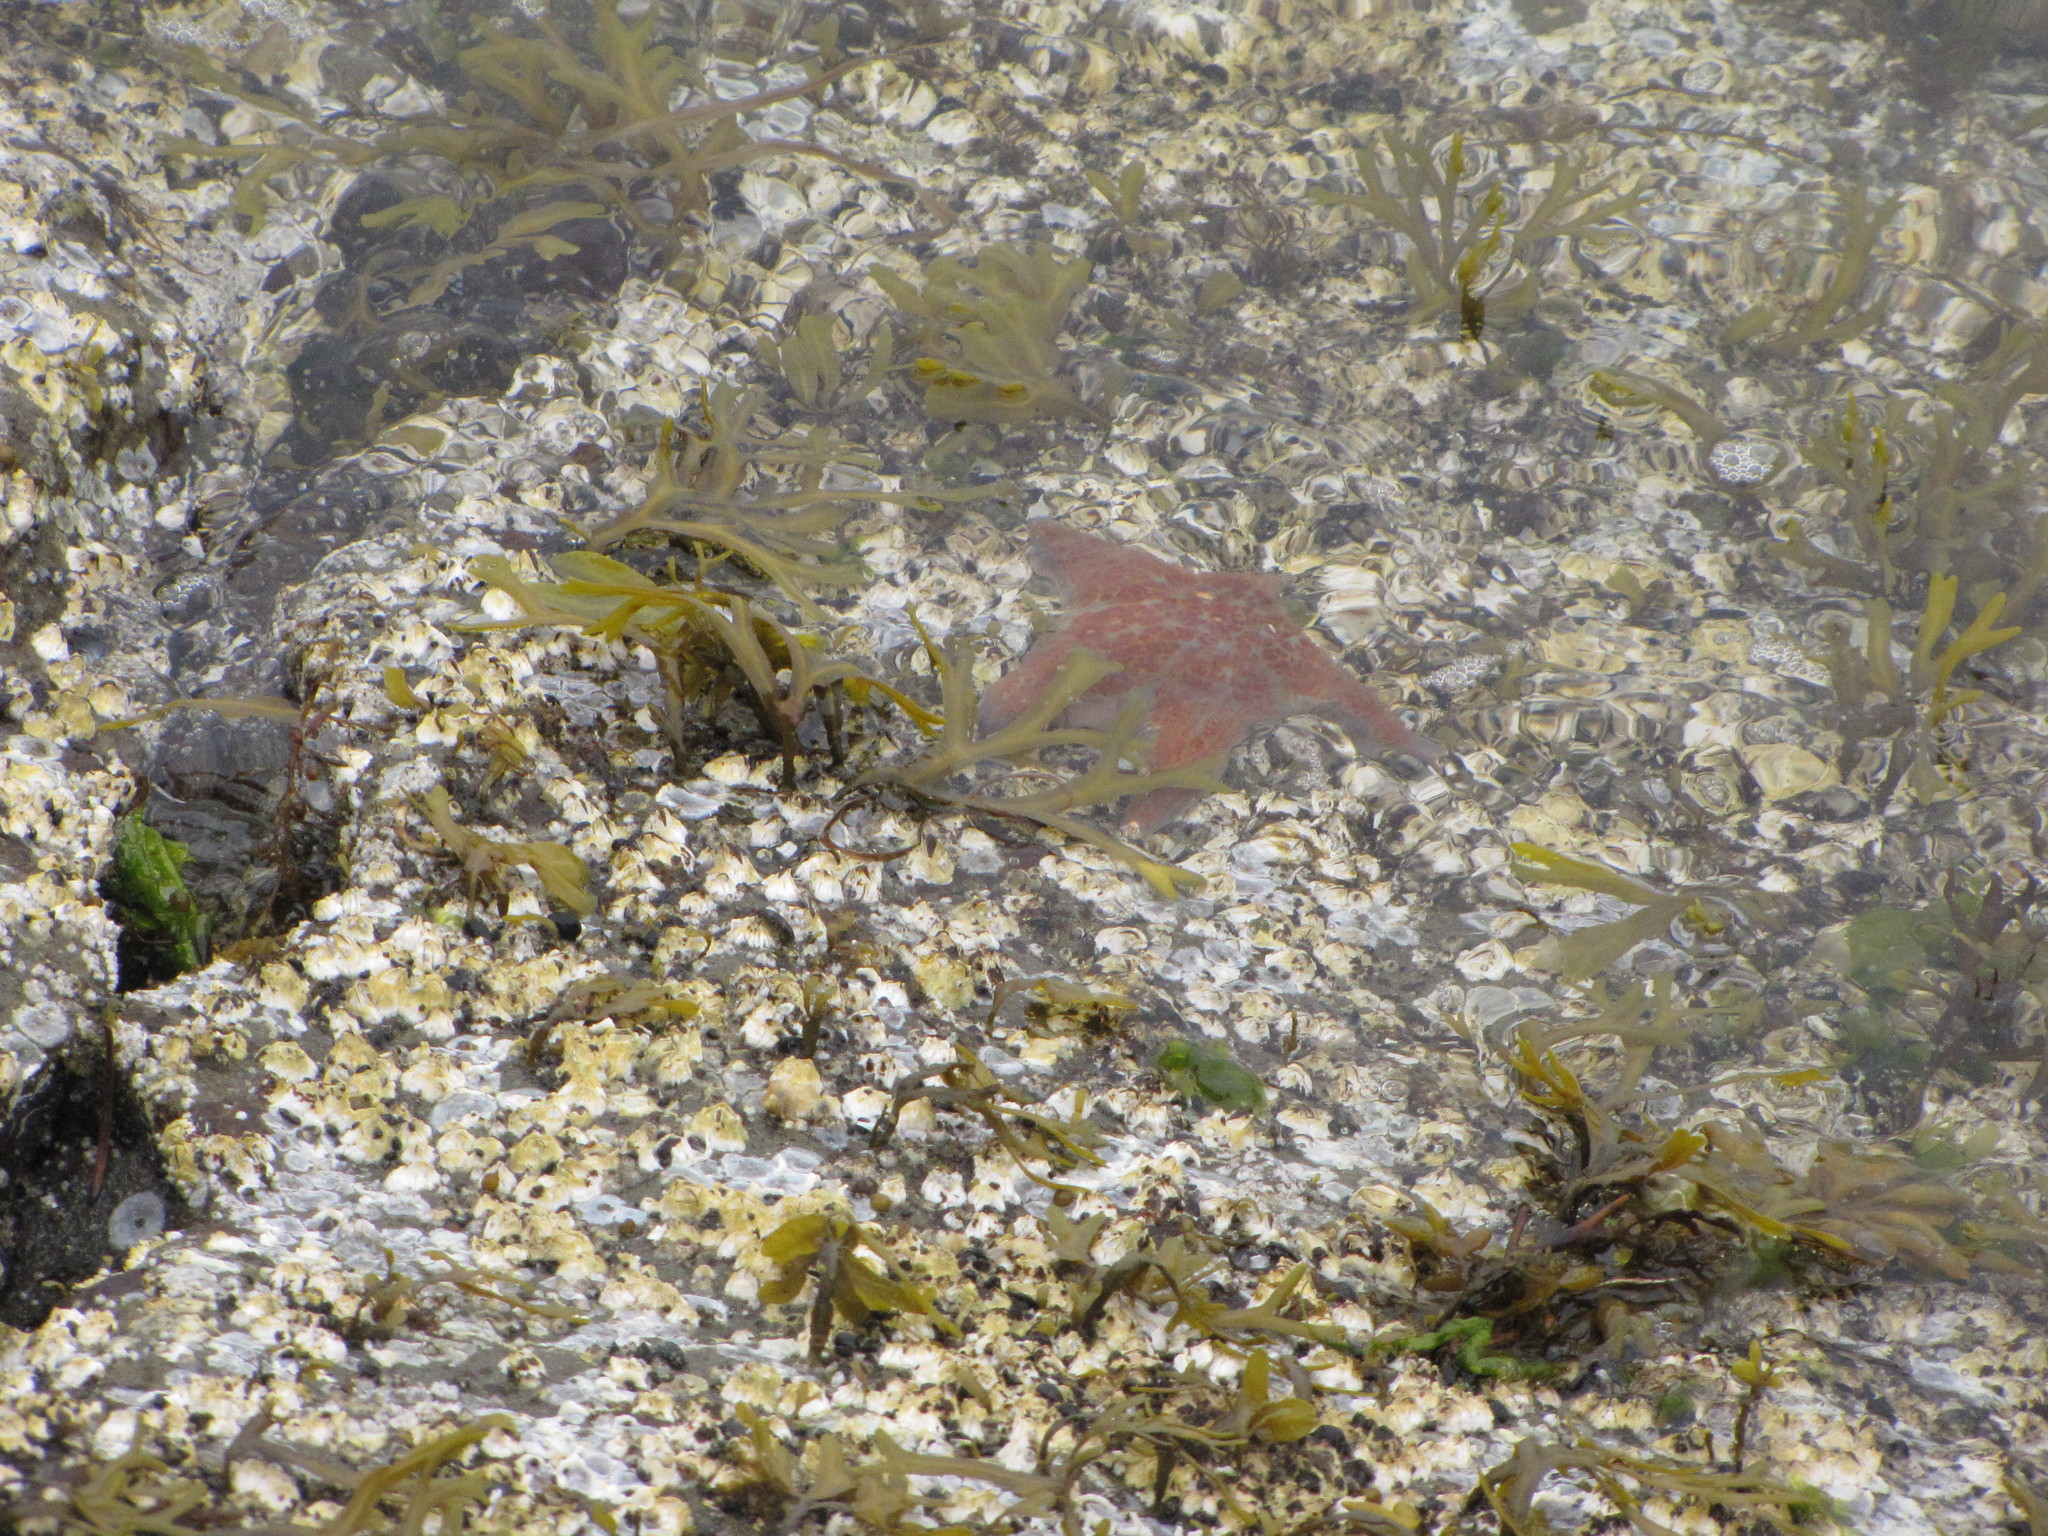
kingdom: Animalia
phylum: Echinodermata
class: Asteroidea
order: Valvatida
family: Asteropseidae
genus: Dermasterias
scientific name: Dermasterias imbricata
